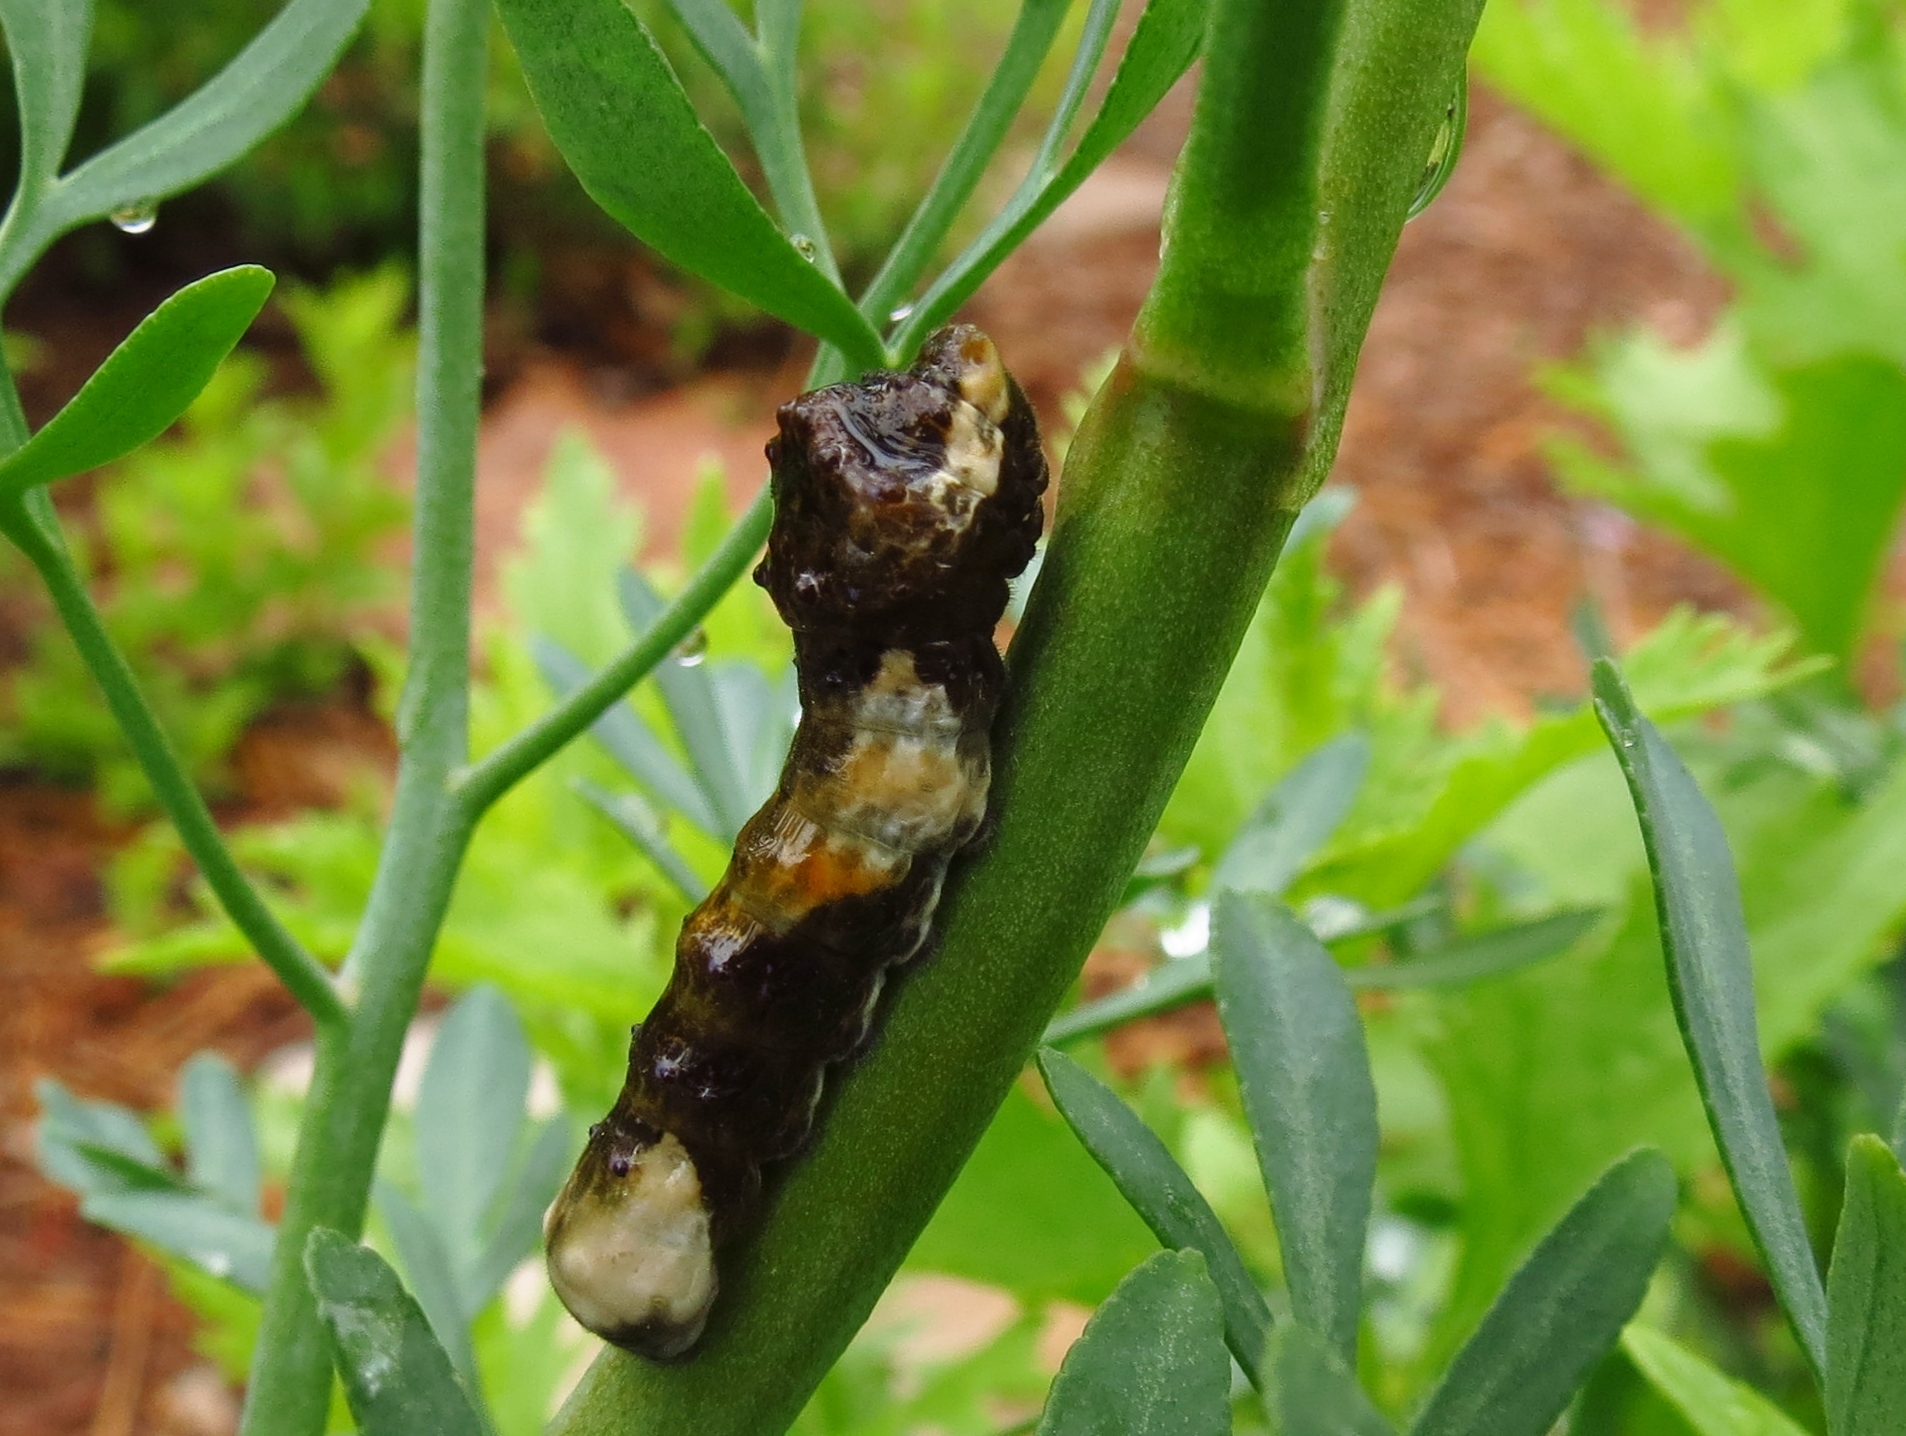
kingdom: Animalia
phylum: Arthropoda
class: Insecta
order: Lepidoptera
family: Papilionidae
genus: Papilio
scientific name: Papilio cresphontes
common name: Giant swallowtail
